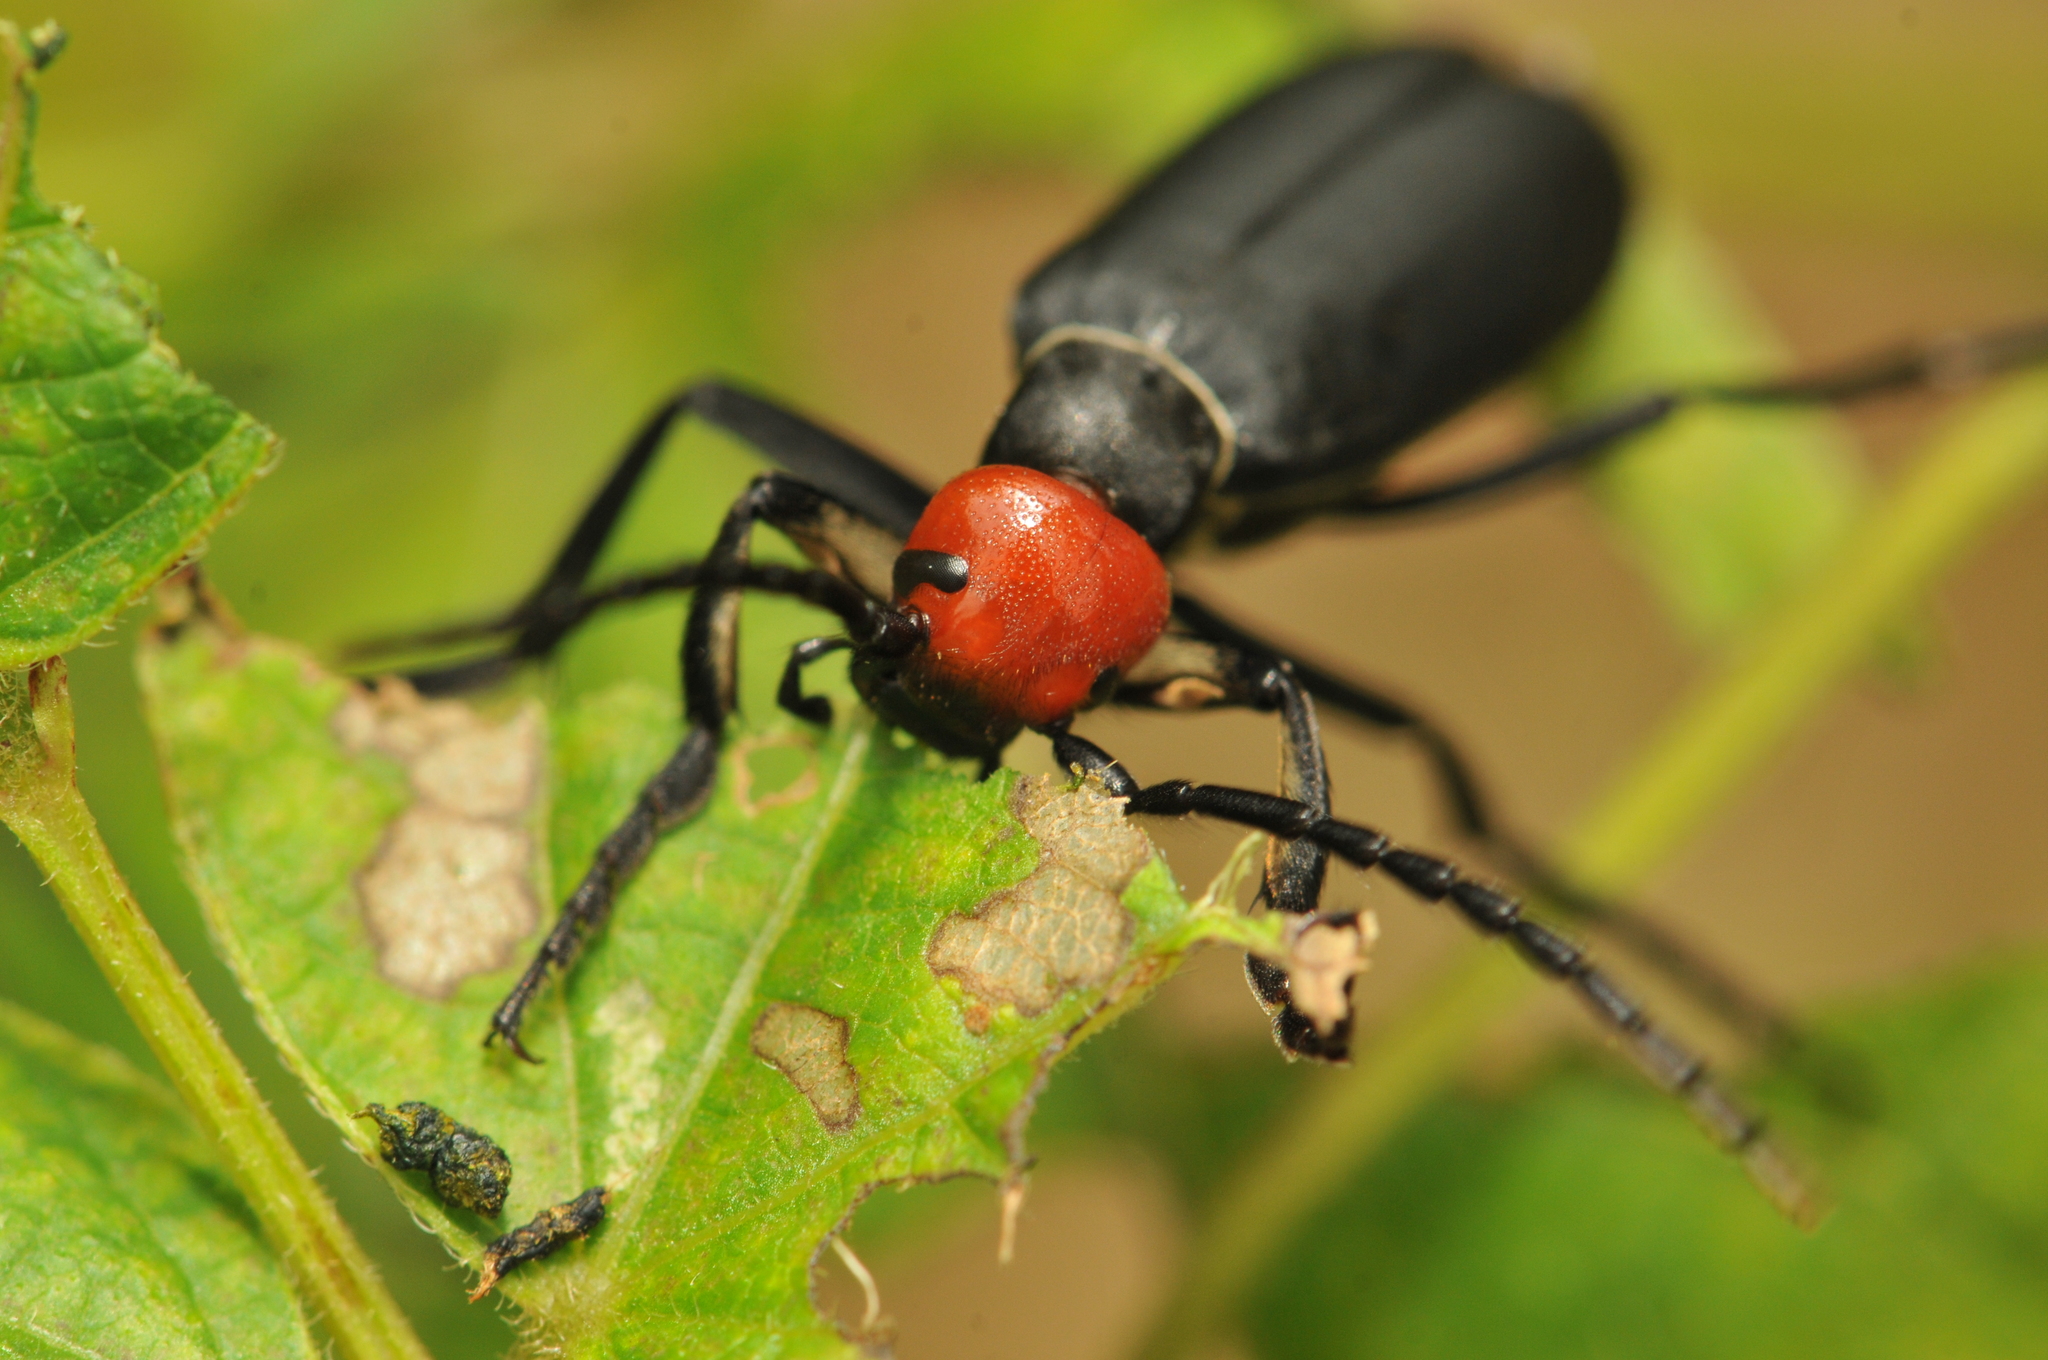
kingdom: Animalia
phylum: Arthropoda
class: Insecta
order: Coleoptera
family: Meloidae
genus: Epicauta
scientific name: Epicauta hirticornis
